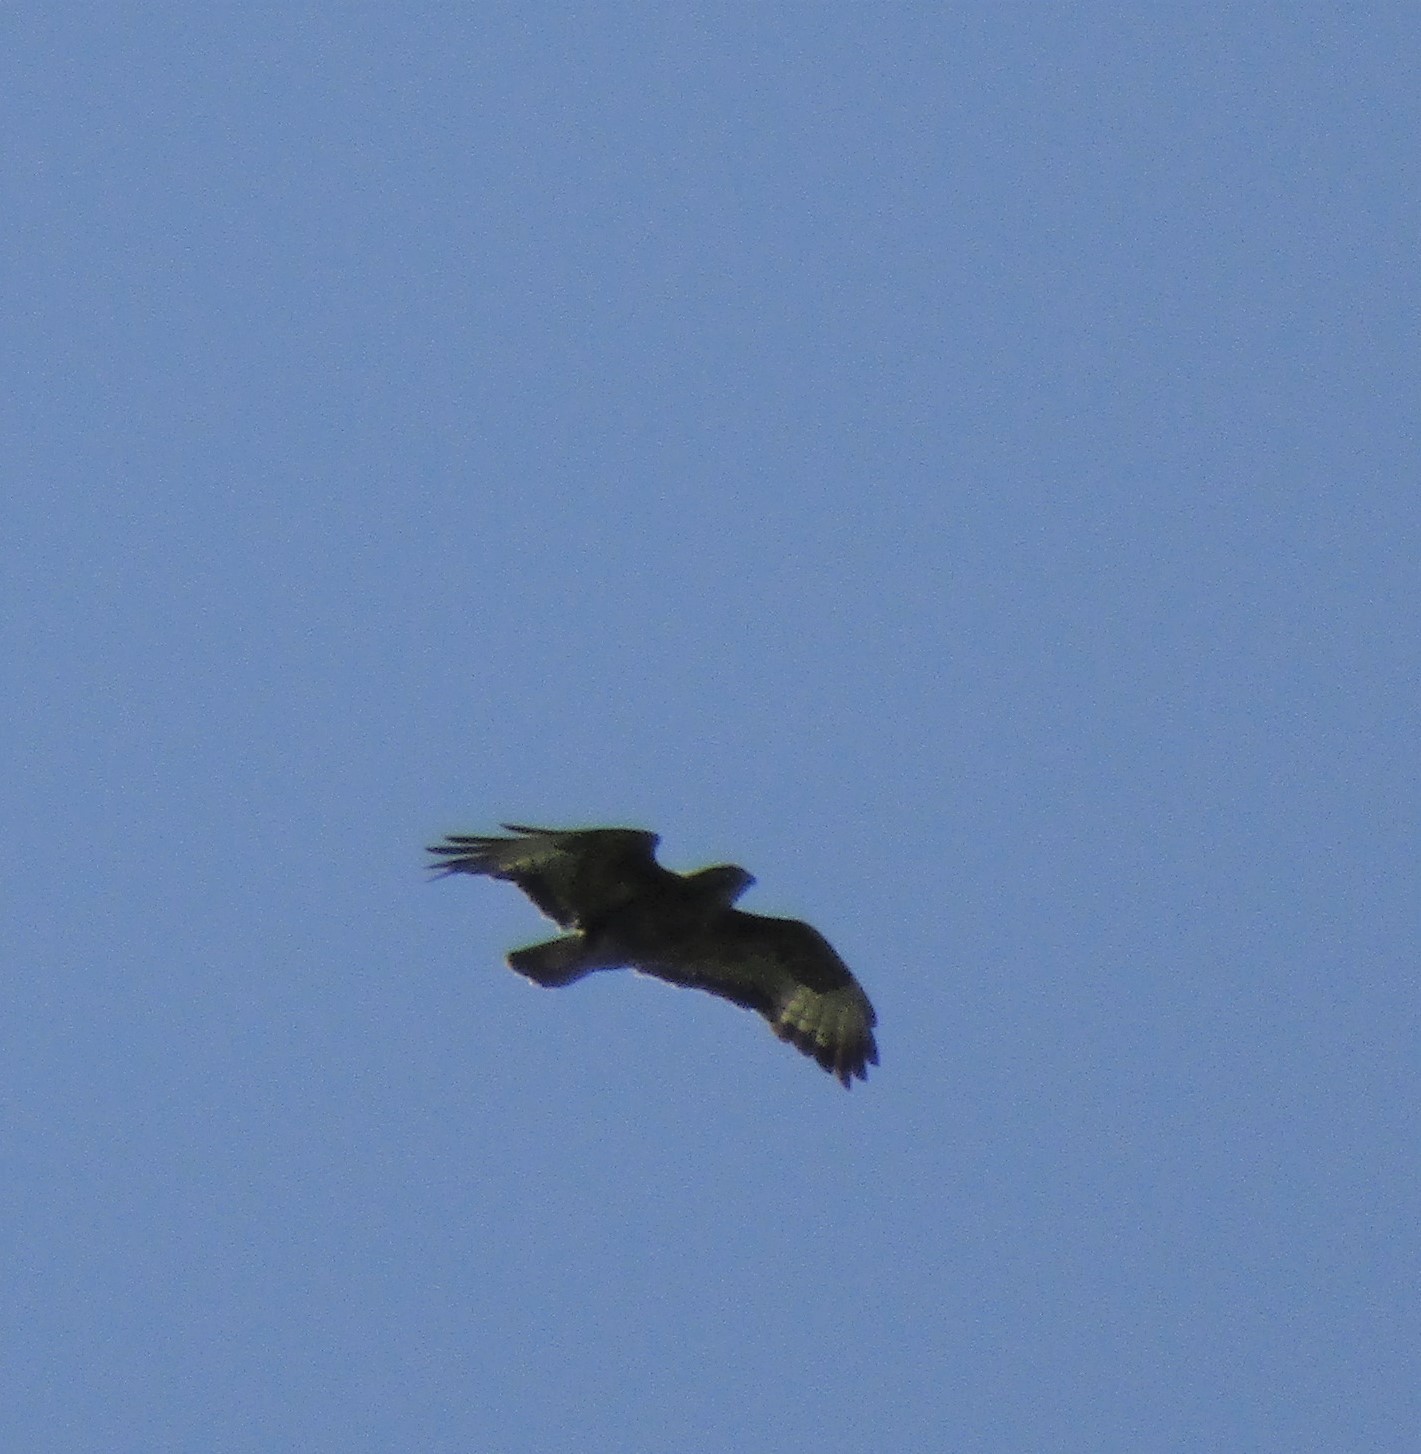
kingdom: Animalia
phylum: Chordata
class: Aves
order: Accipitriformes
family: Accipitridae
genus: Buteo
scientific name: Buteo buteo
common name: Common buzzard
